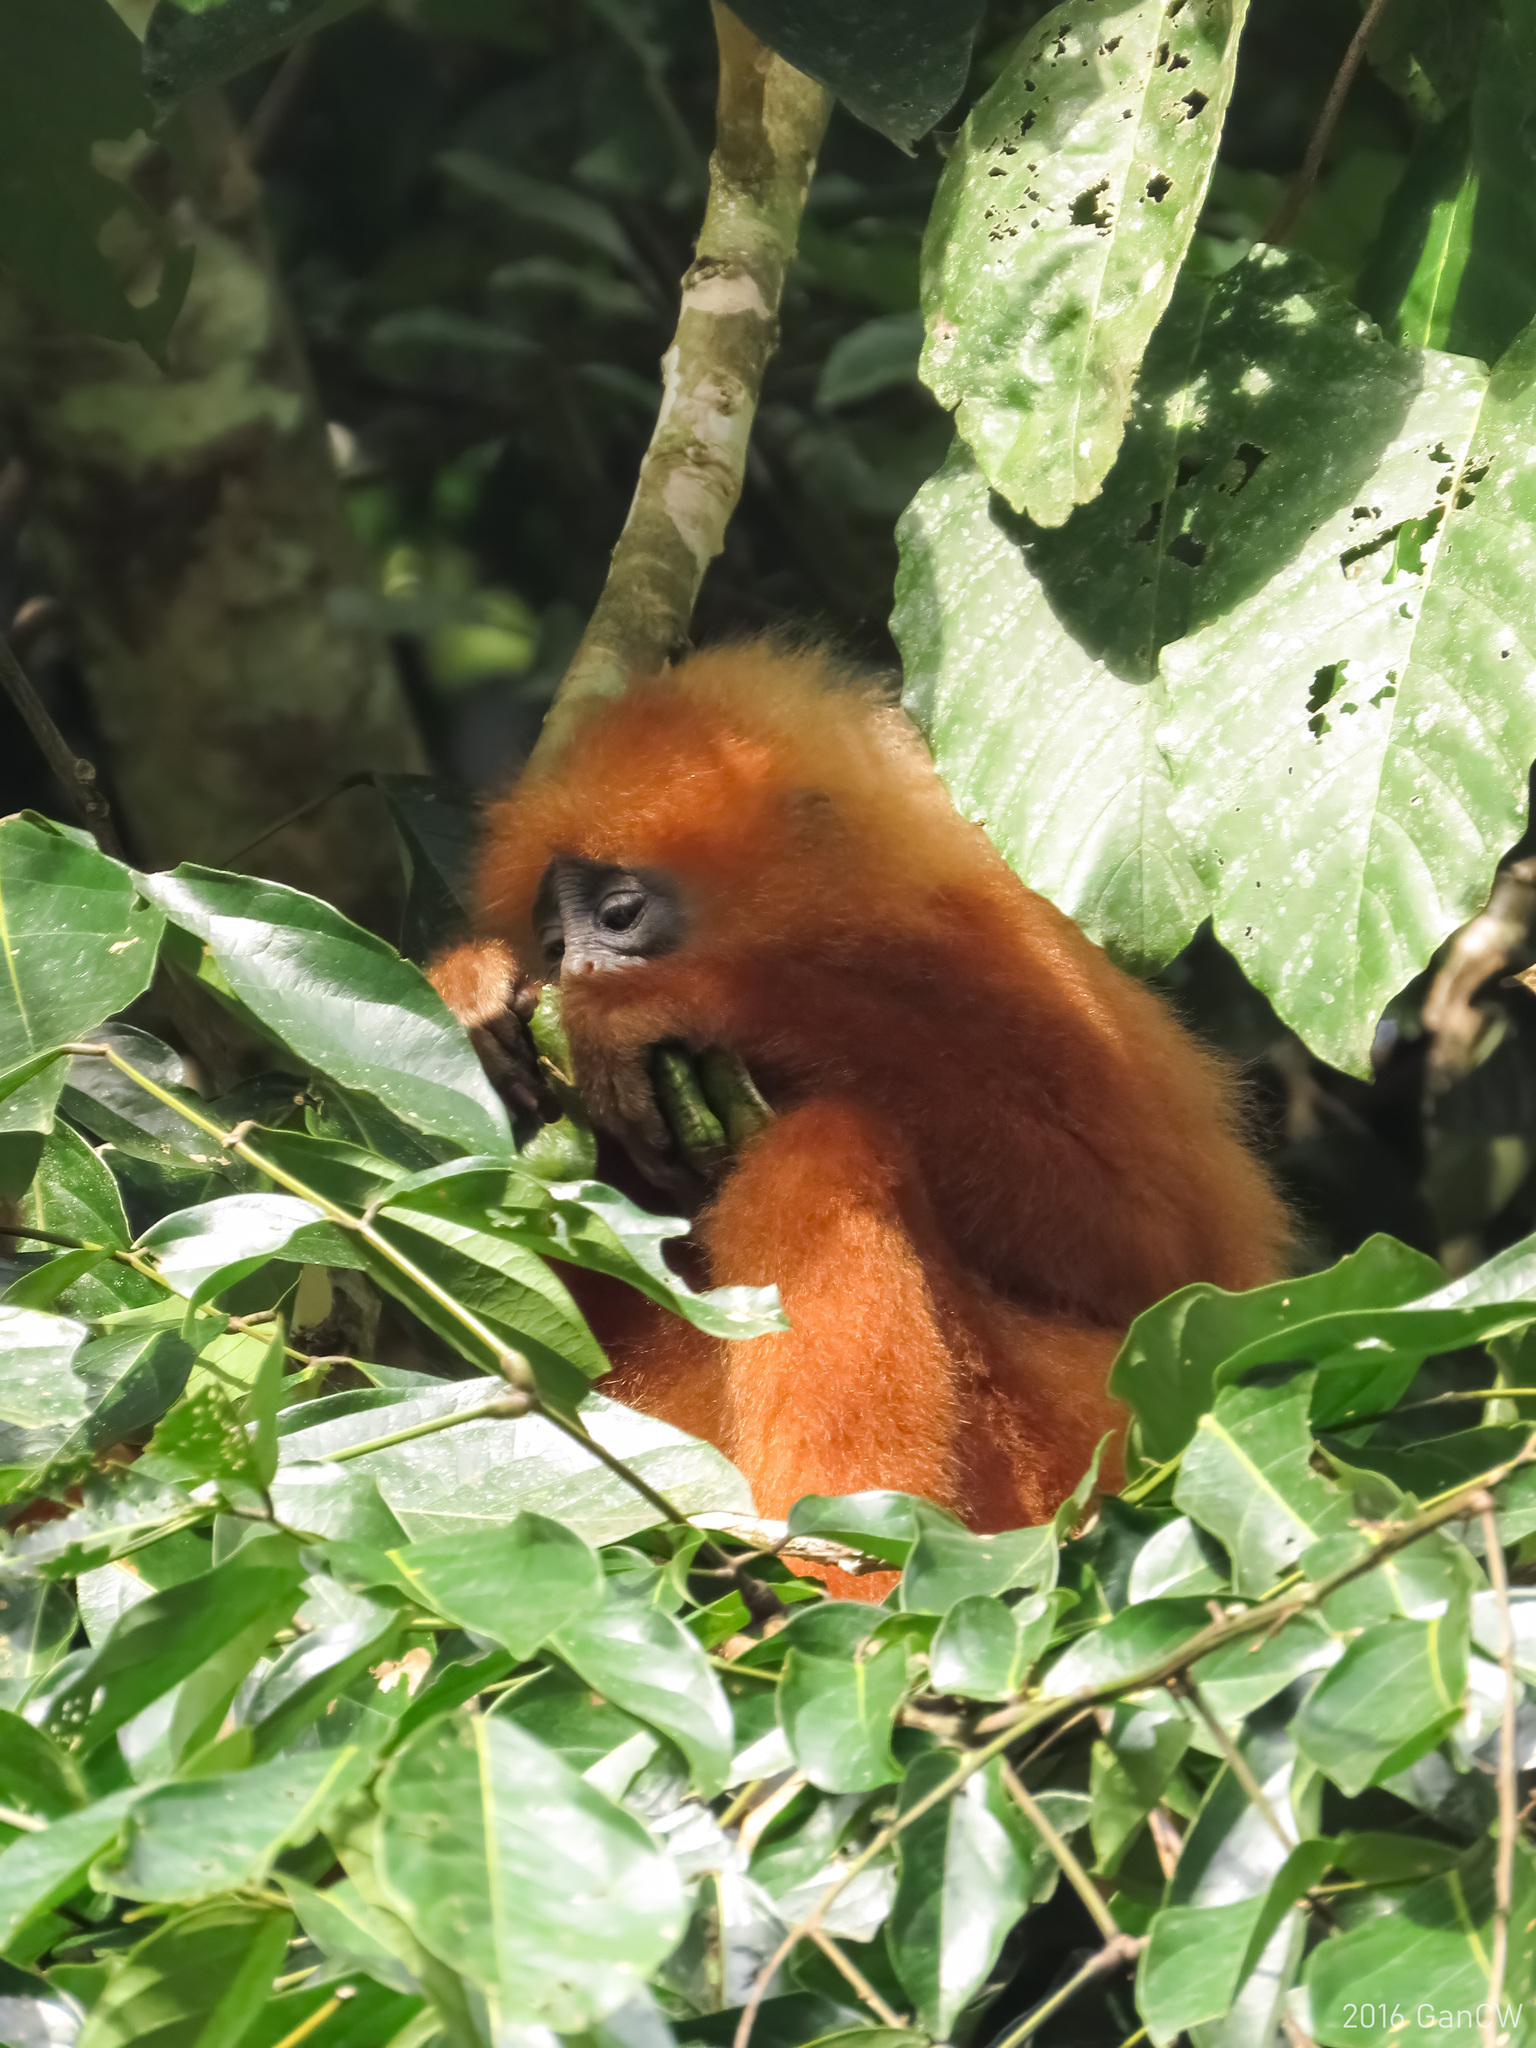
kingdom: Animalia
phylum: Chordata
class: Mammalia
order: Primates
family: Cercopithecidae
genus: Presbytis
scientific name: Presbytis rubicunda
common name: Maroon leaf monkey
